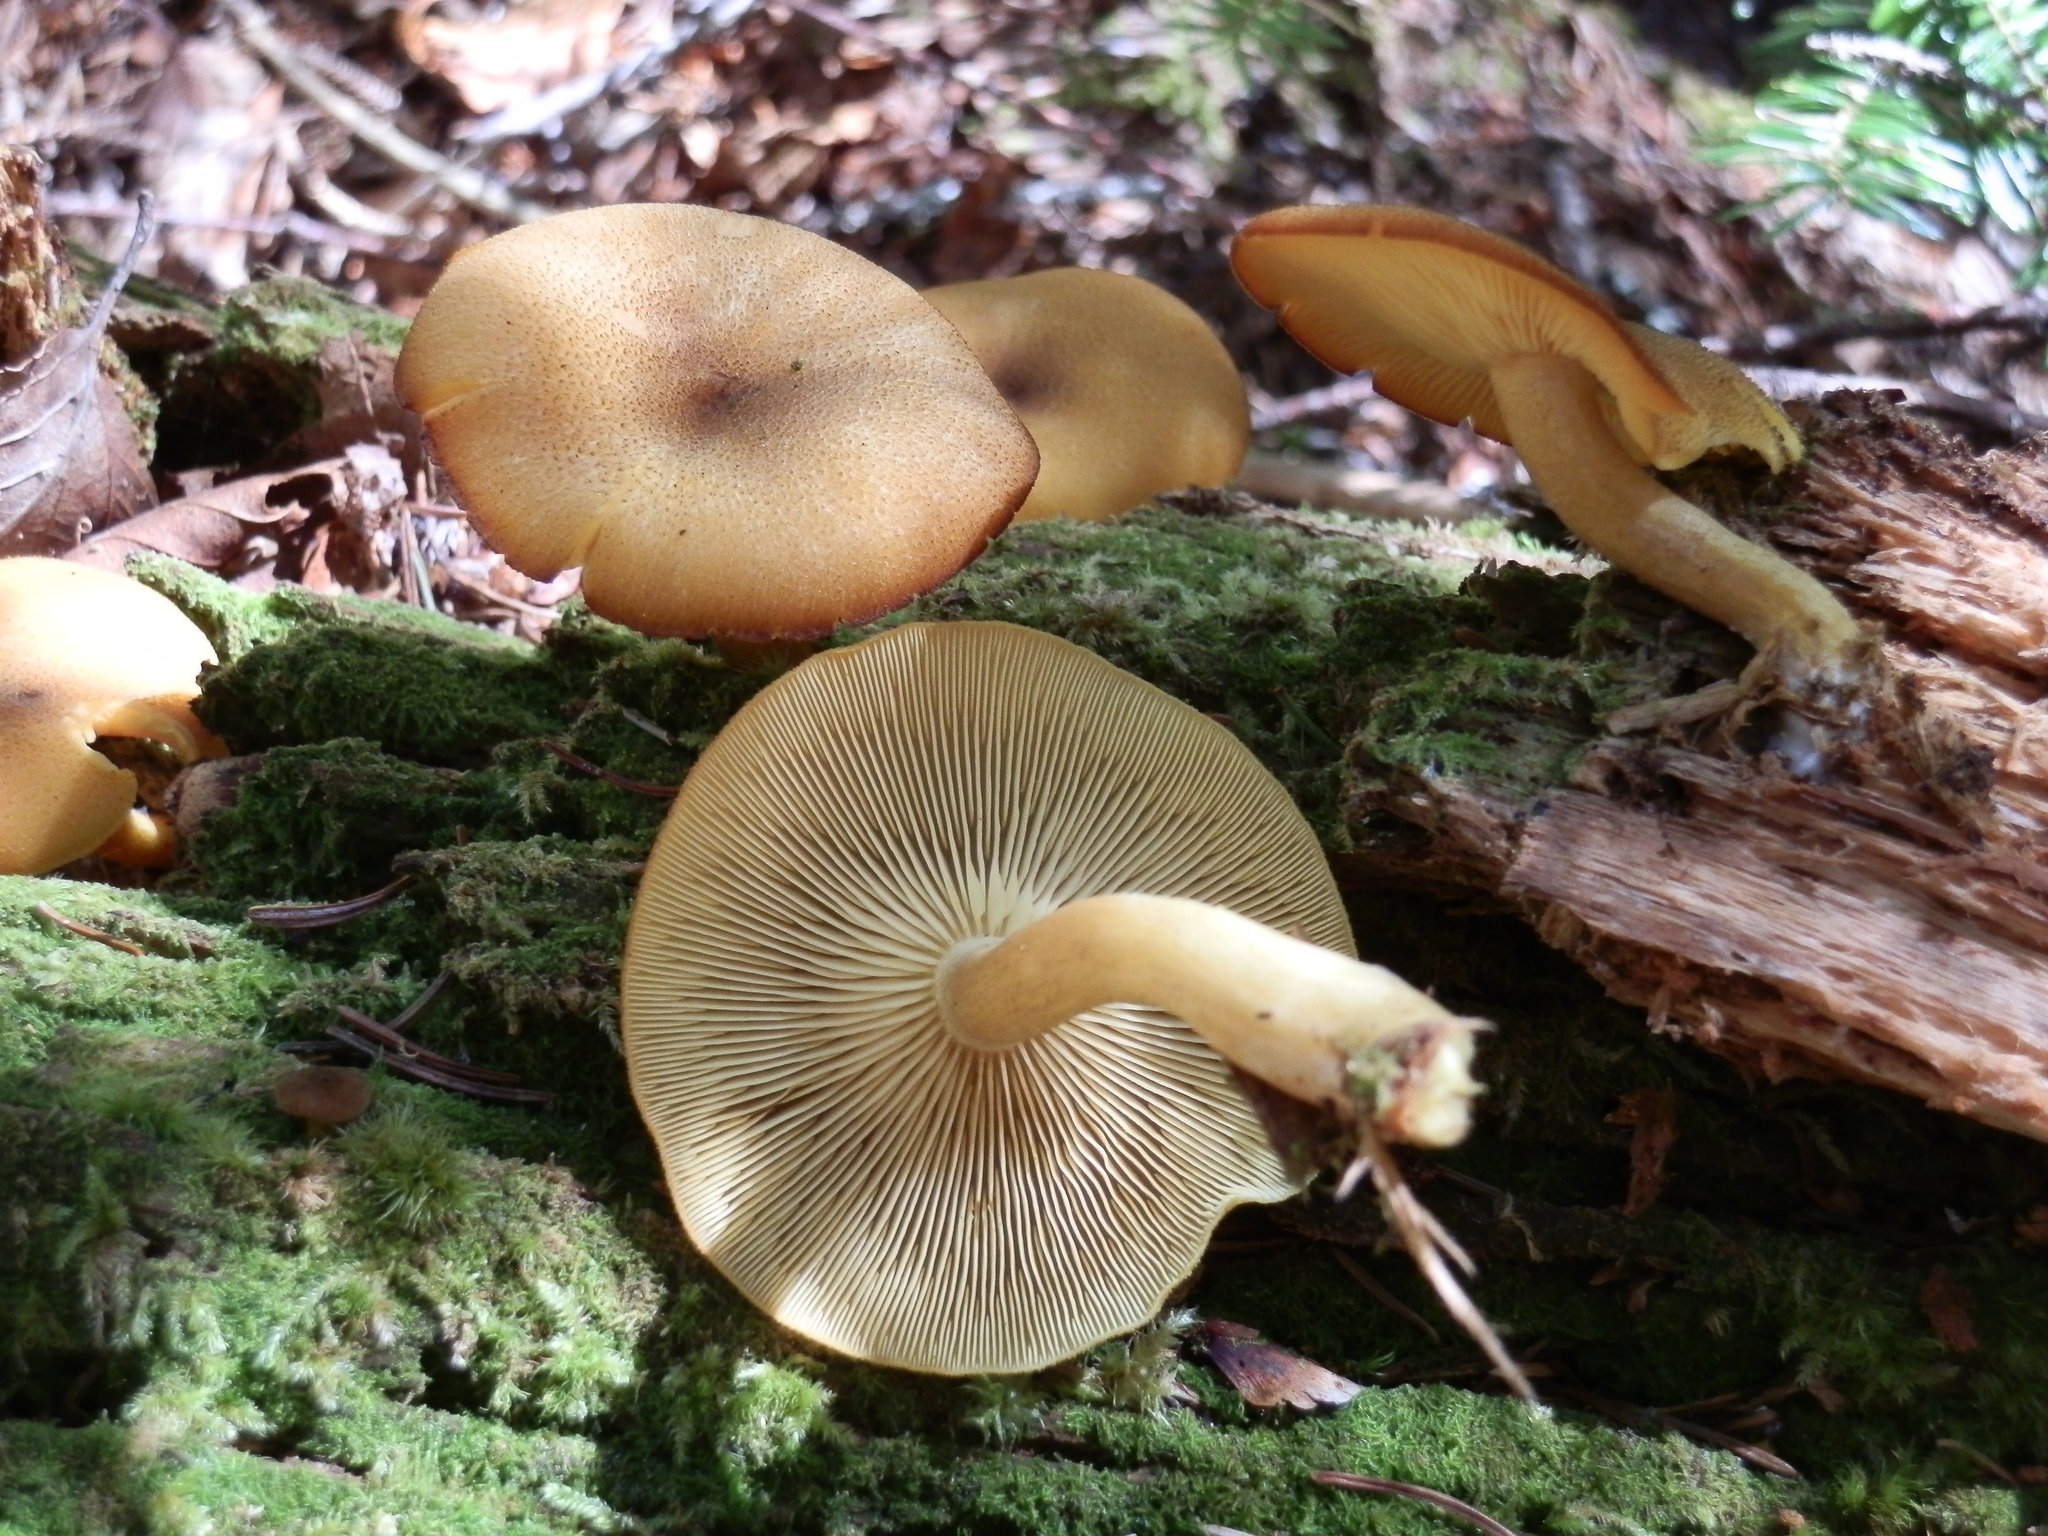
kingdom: Fungi
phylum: Basidiomycota
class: Agaricomycetes
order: Agaricales
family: Tricholomataceae
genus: Tricholomopsis
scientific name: Tricholomopsis decora
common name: Prunes and custard
